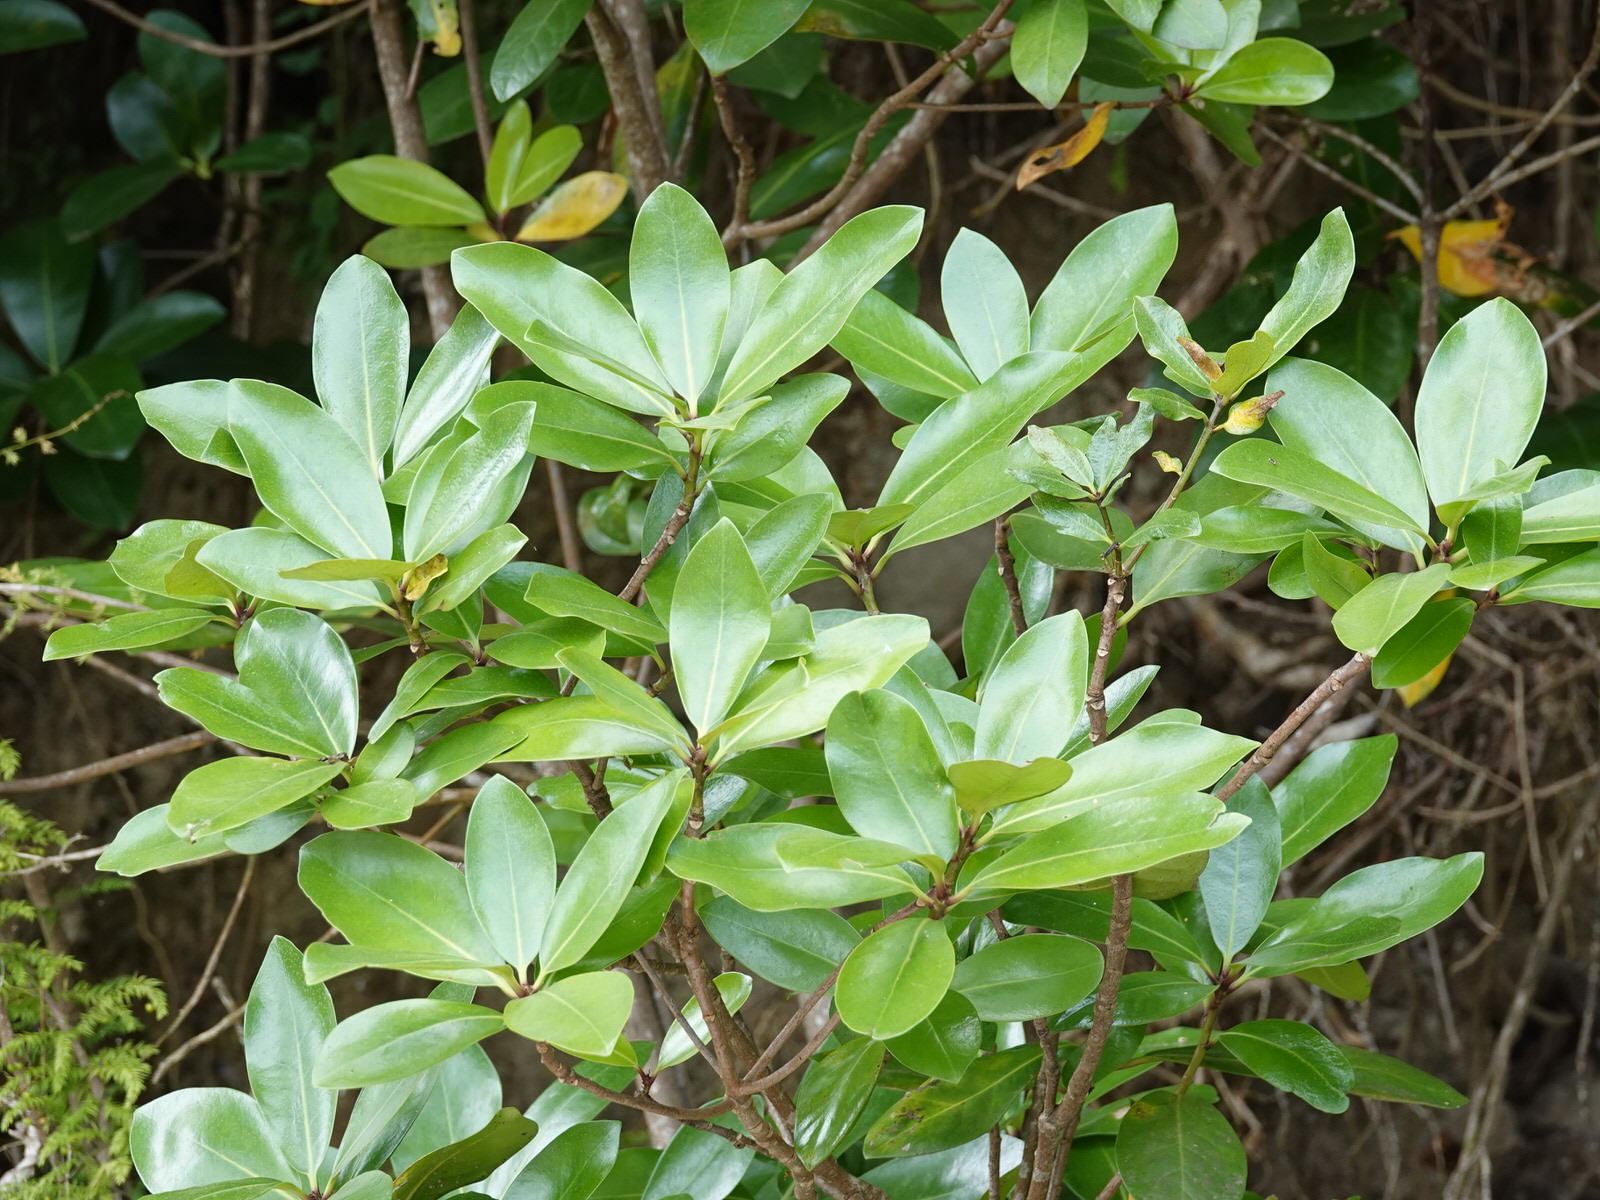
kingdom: Plantae
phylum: Tracheophyta
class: Magnoliopsida
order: Cucurbitales
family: Corynocarpaceae
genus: Corynocarpus
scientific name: Corynocarpus laevigatus
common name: New zealand laurel
